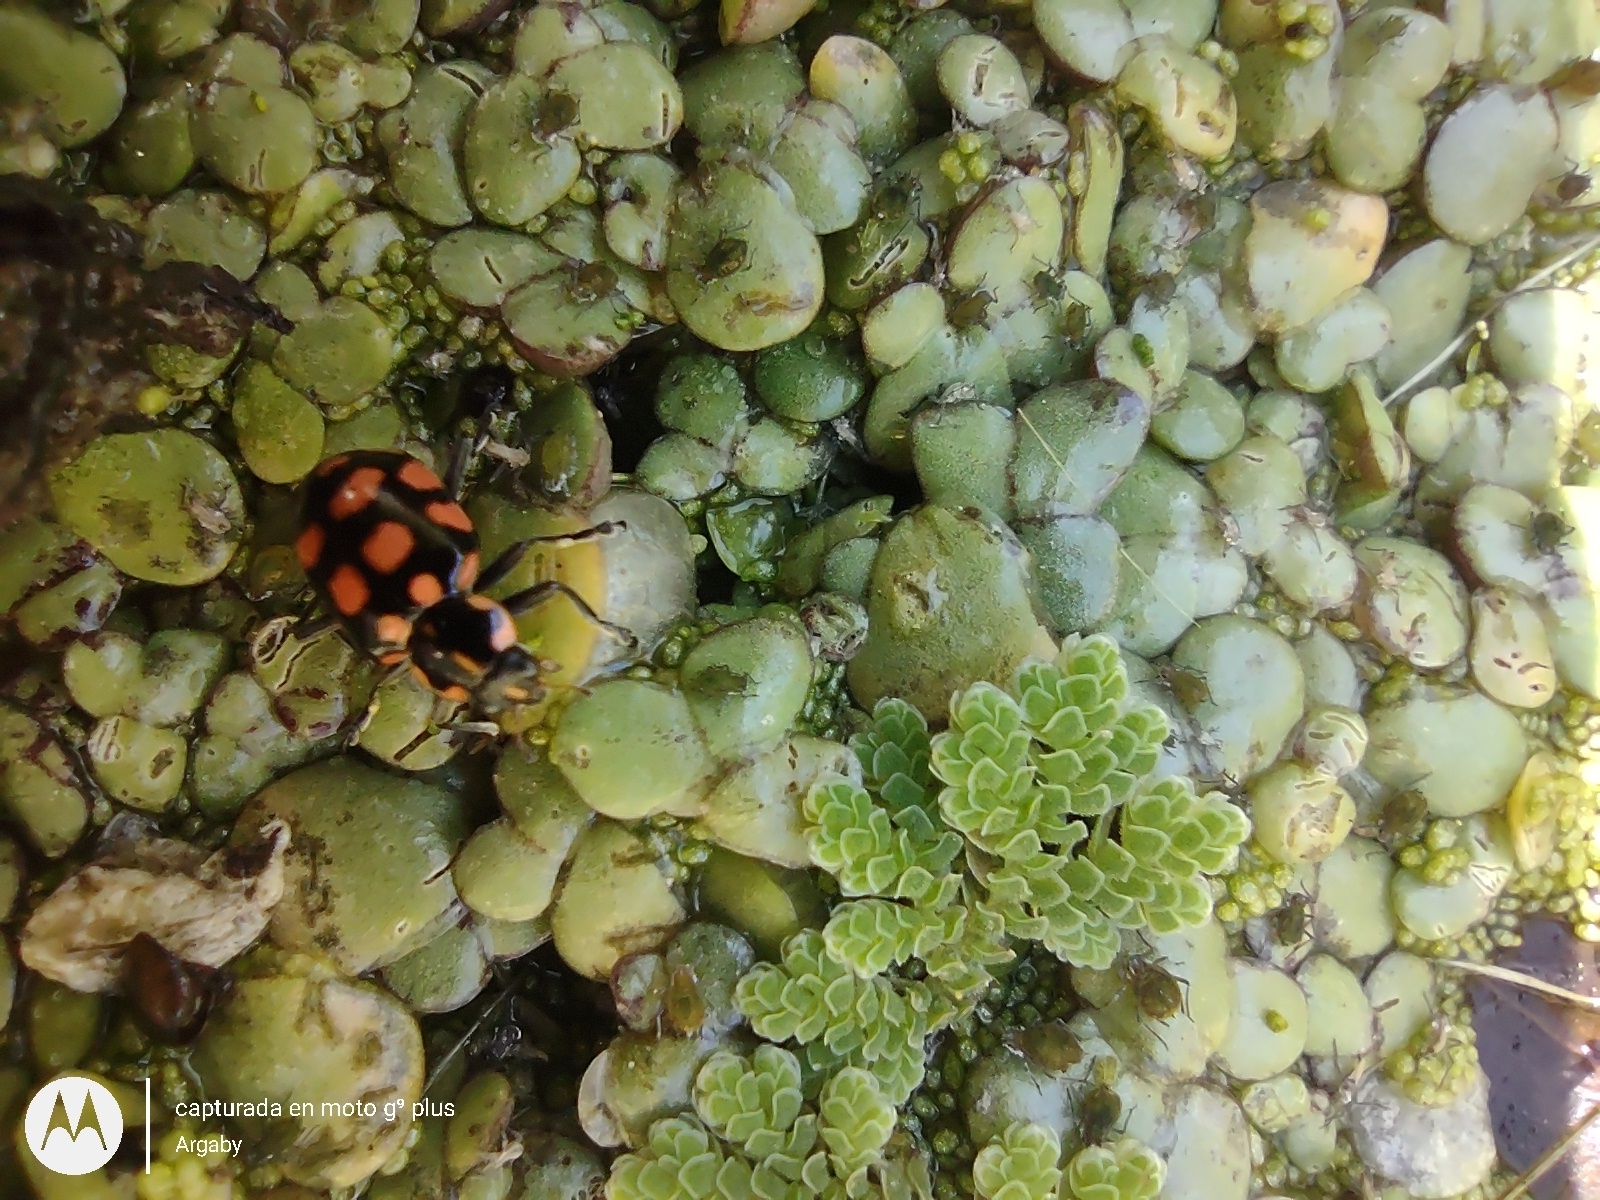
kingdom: Animalia
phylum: Arthropoda
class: Insecta
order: Coleoptera
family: Coccinellidae
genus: Coleomegilla
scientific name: Coleomegilla
